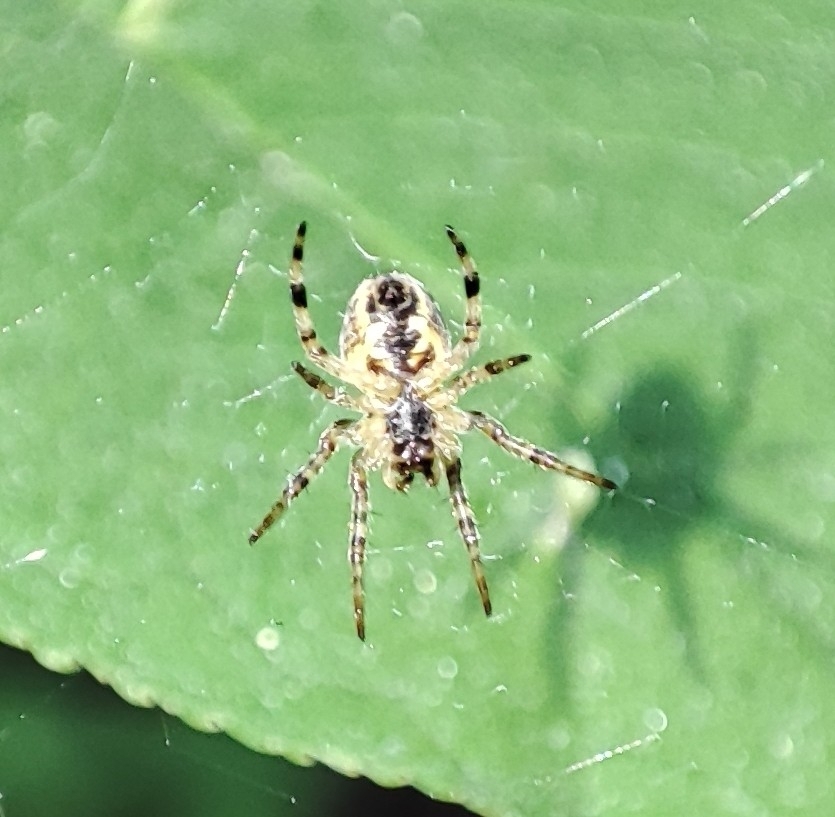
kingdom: Animalia
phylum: Arthropoda
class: Arachnida
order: Araneae
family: Araneidae
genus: Araneus
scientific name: Araneus diadematus
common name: Cross orbweaver
